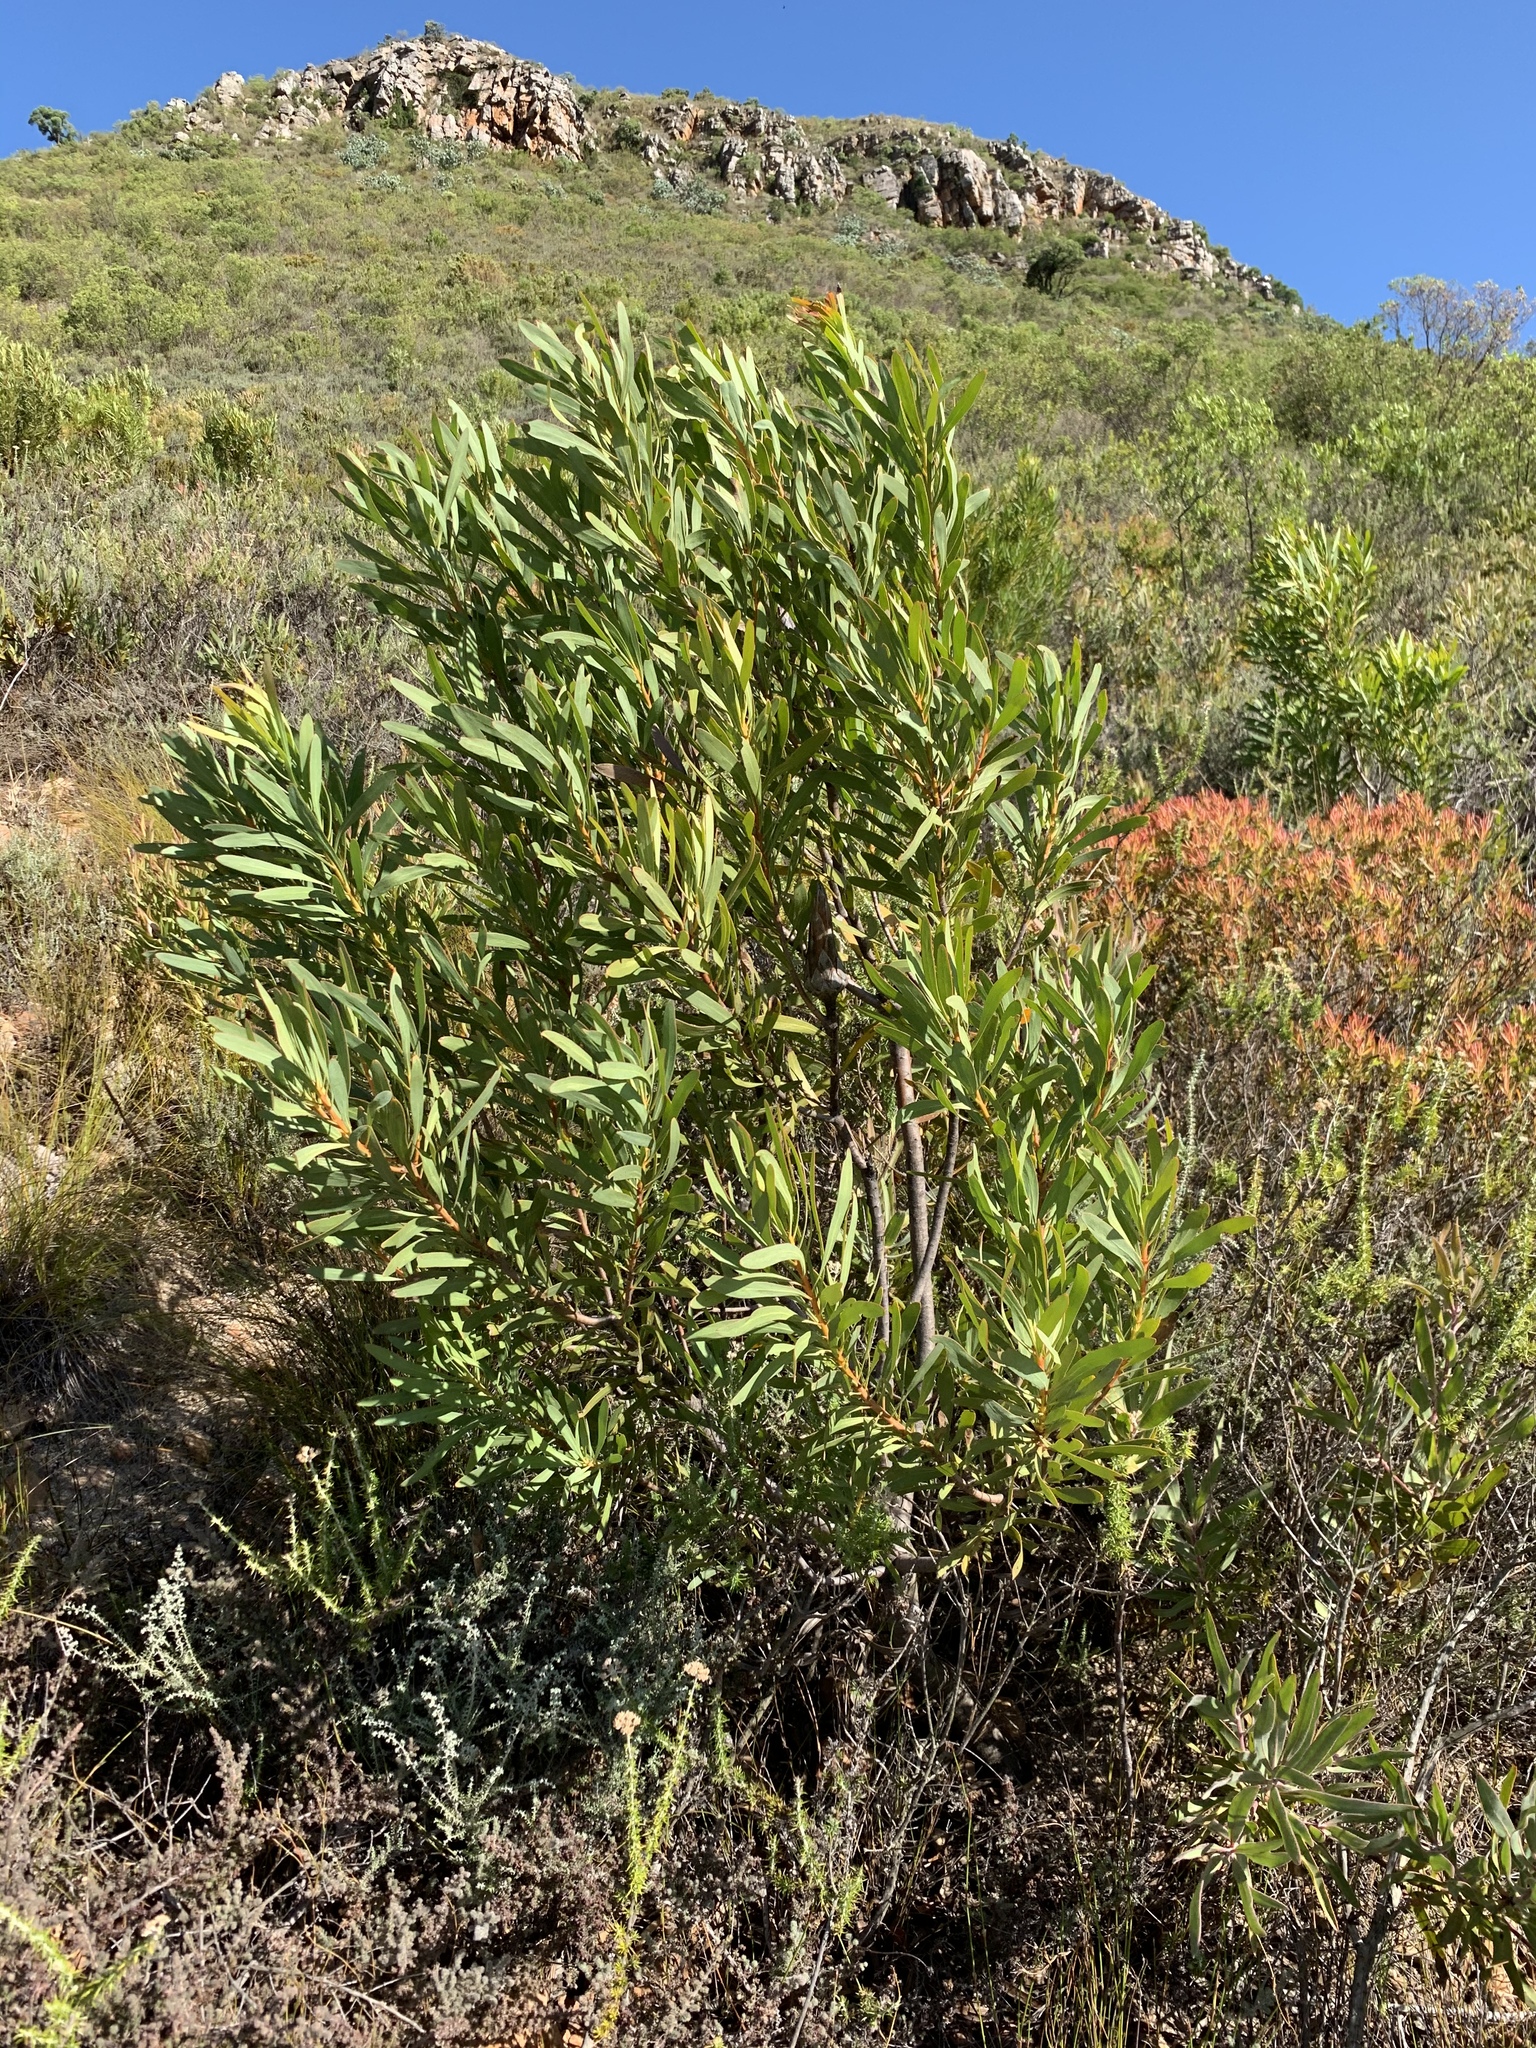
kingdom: Plantae
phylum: Tracheophyta
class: Magnoliopsida
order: Proteales
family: Proteaceae
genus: Protea
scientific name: Protea repens
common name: Sugarbush
